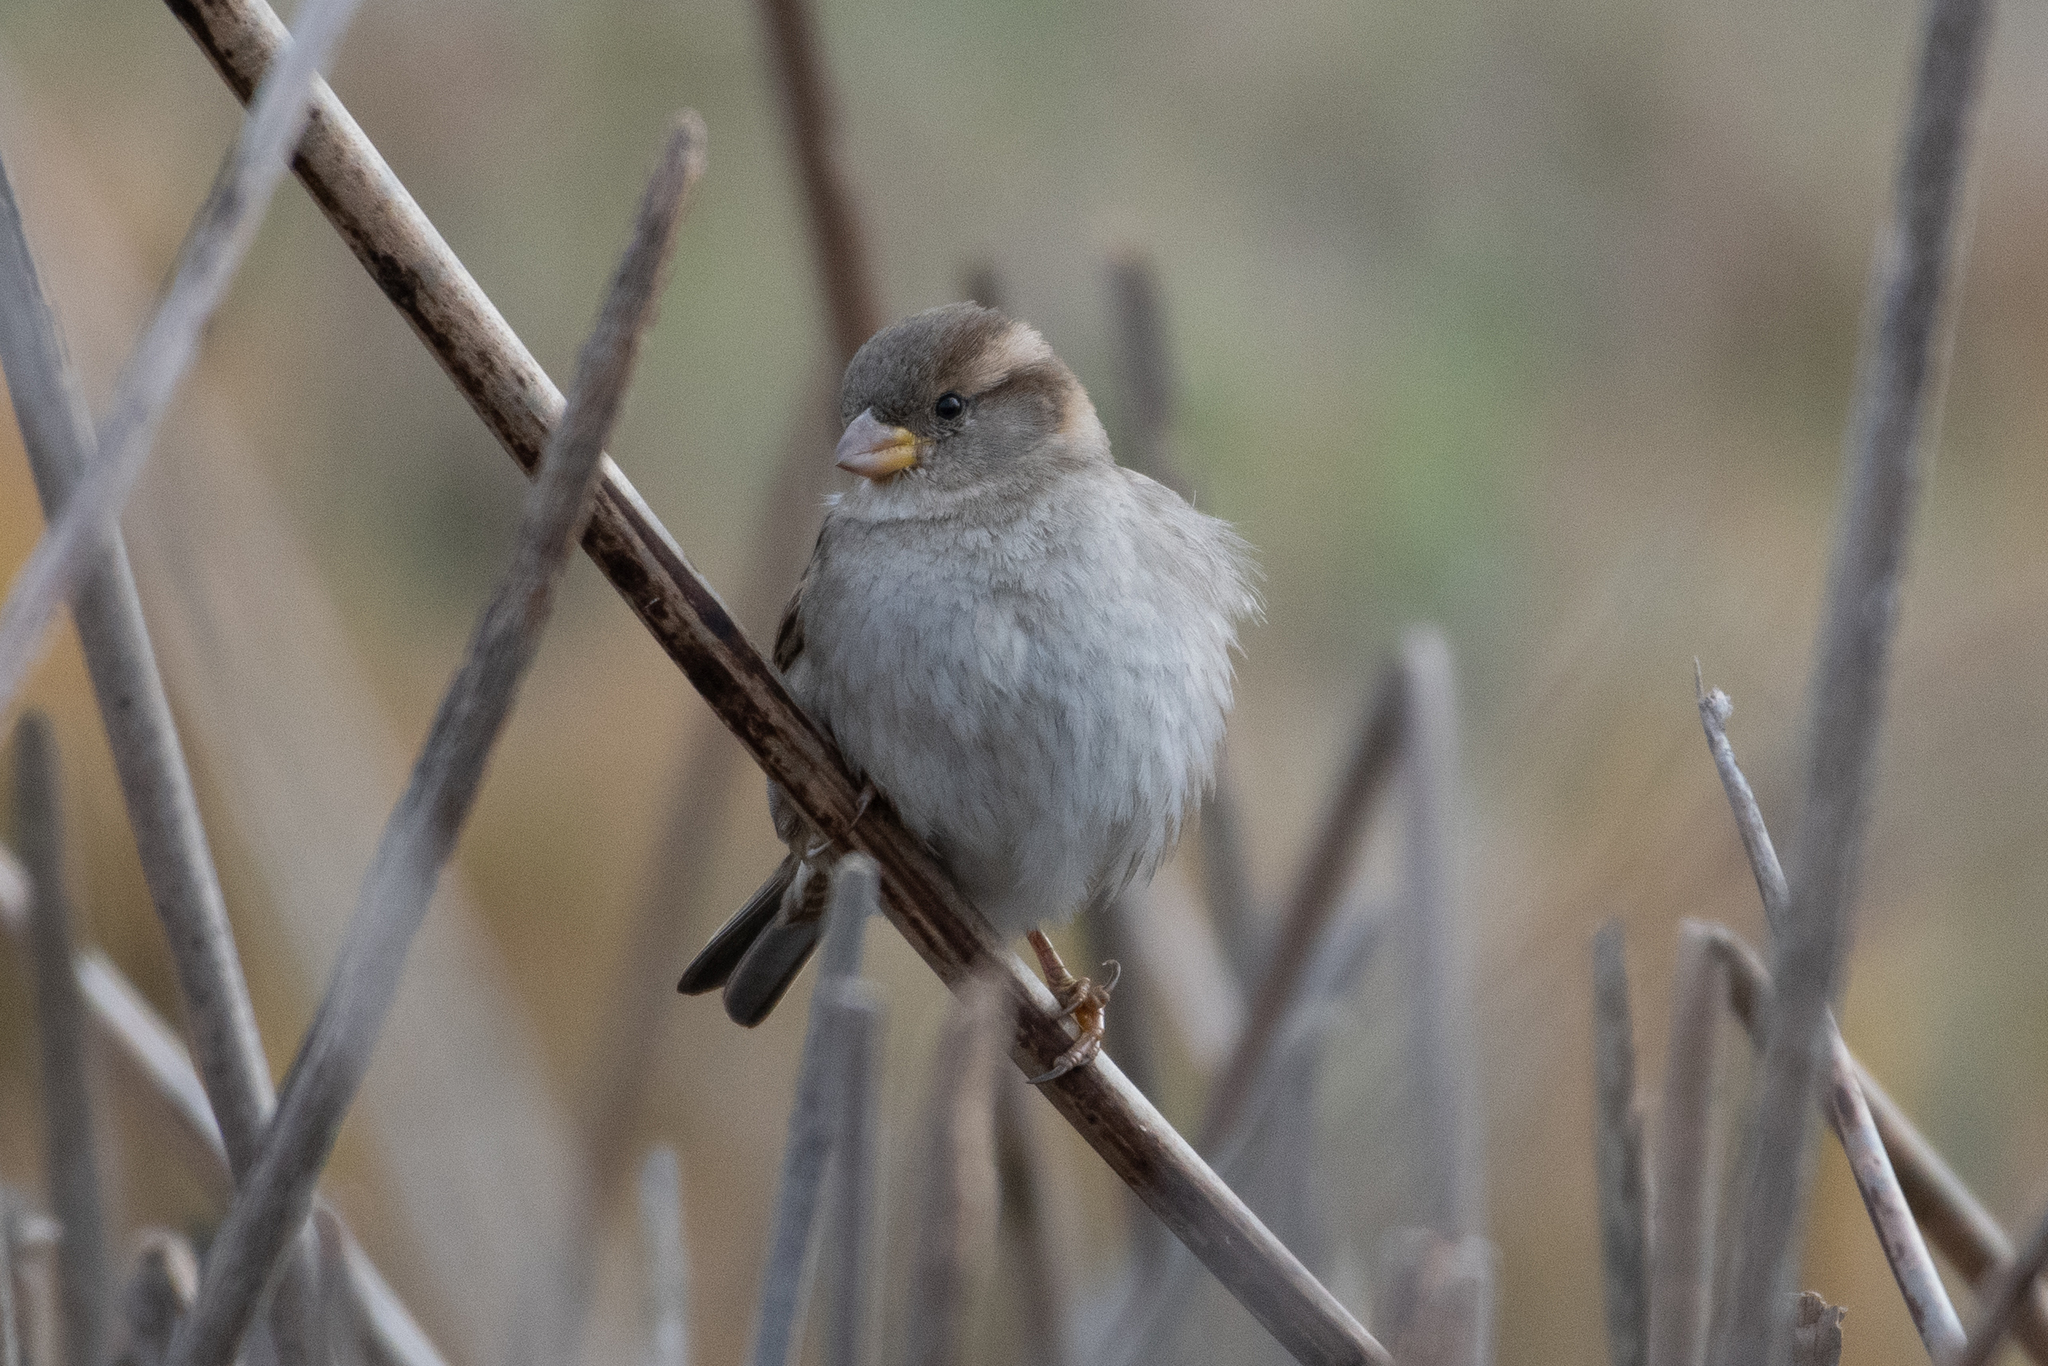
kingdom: Animalia
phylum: Chordata
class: Aves
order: Passeriformes
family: Passeridae
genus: Passer
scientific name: Passer domesticus
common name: House sparrow
